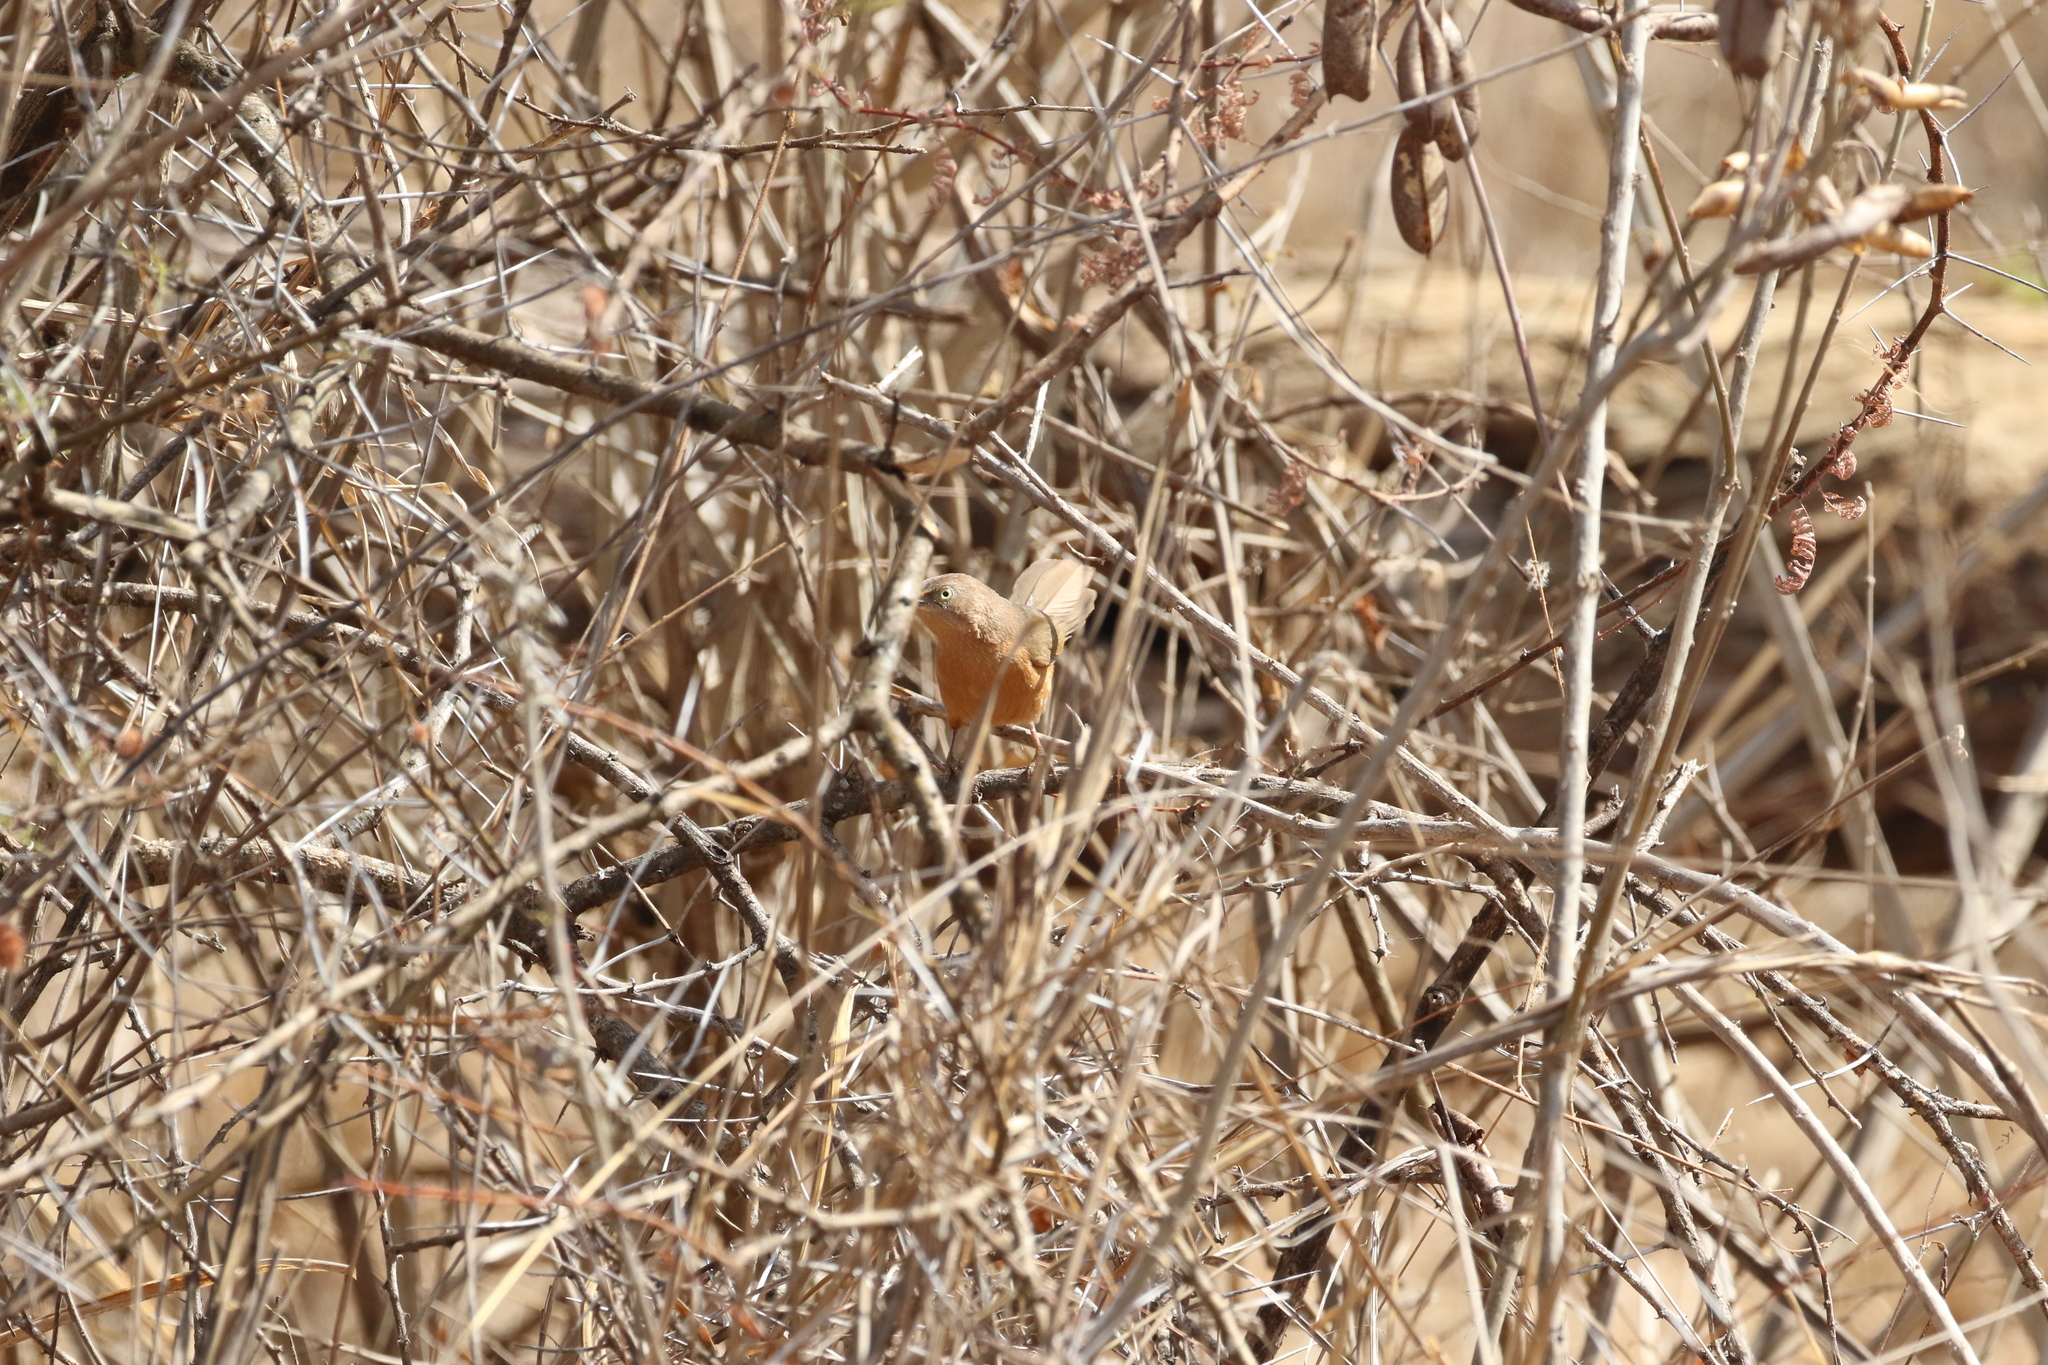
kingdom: Animalia
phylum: Chordata
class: Aves
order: Passeriformes
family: Leiothrichidae
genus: Turdoides
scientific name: Turdoides rubiginosa
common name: Rufous chatterer
